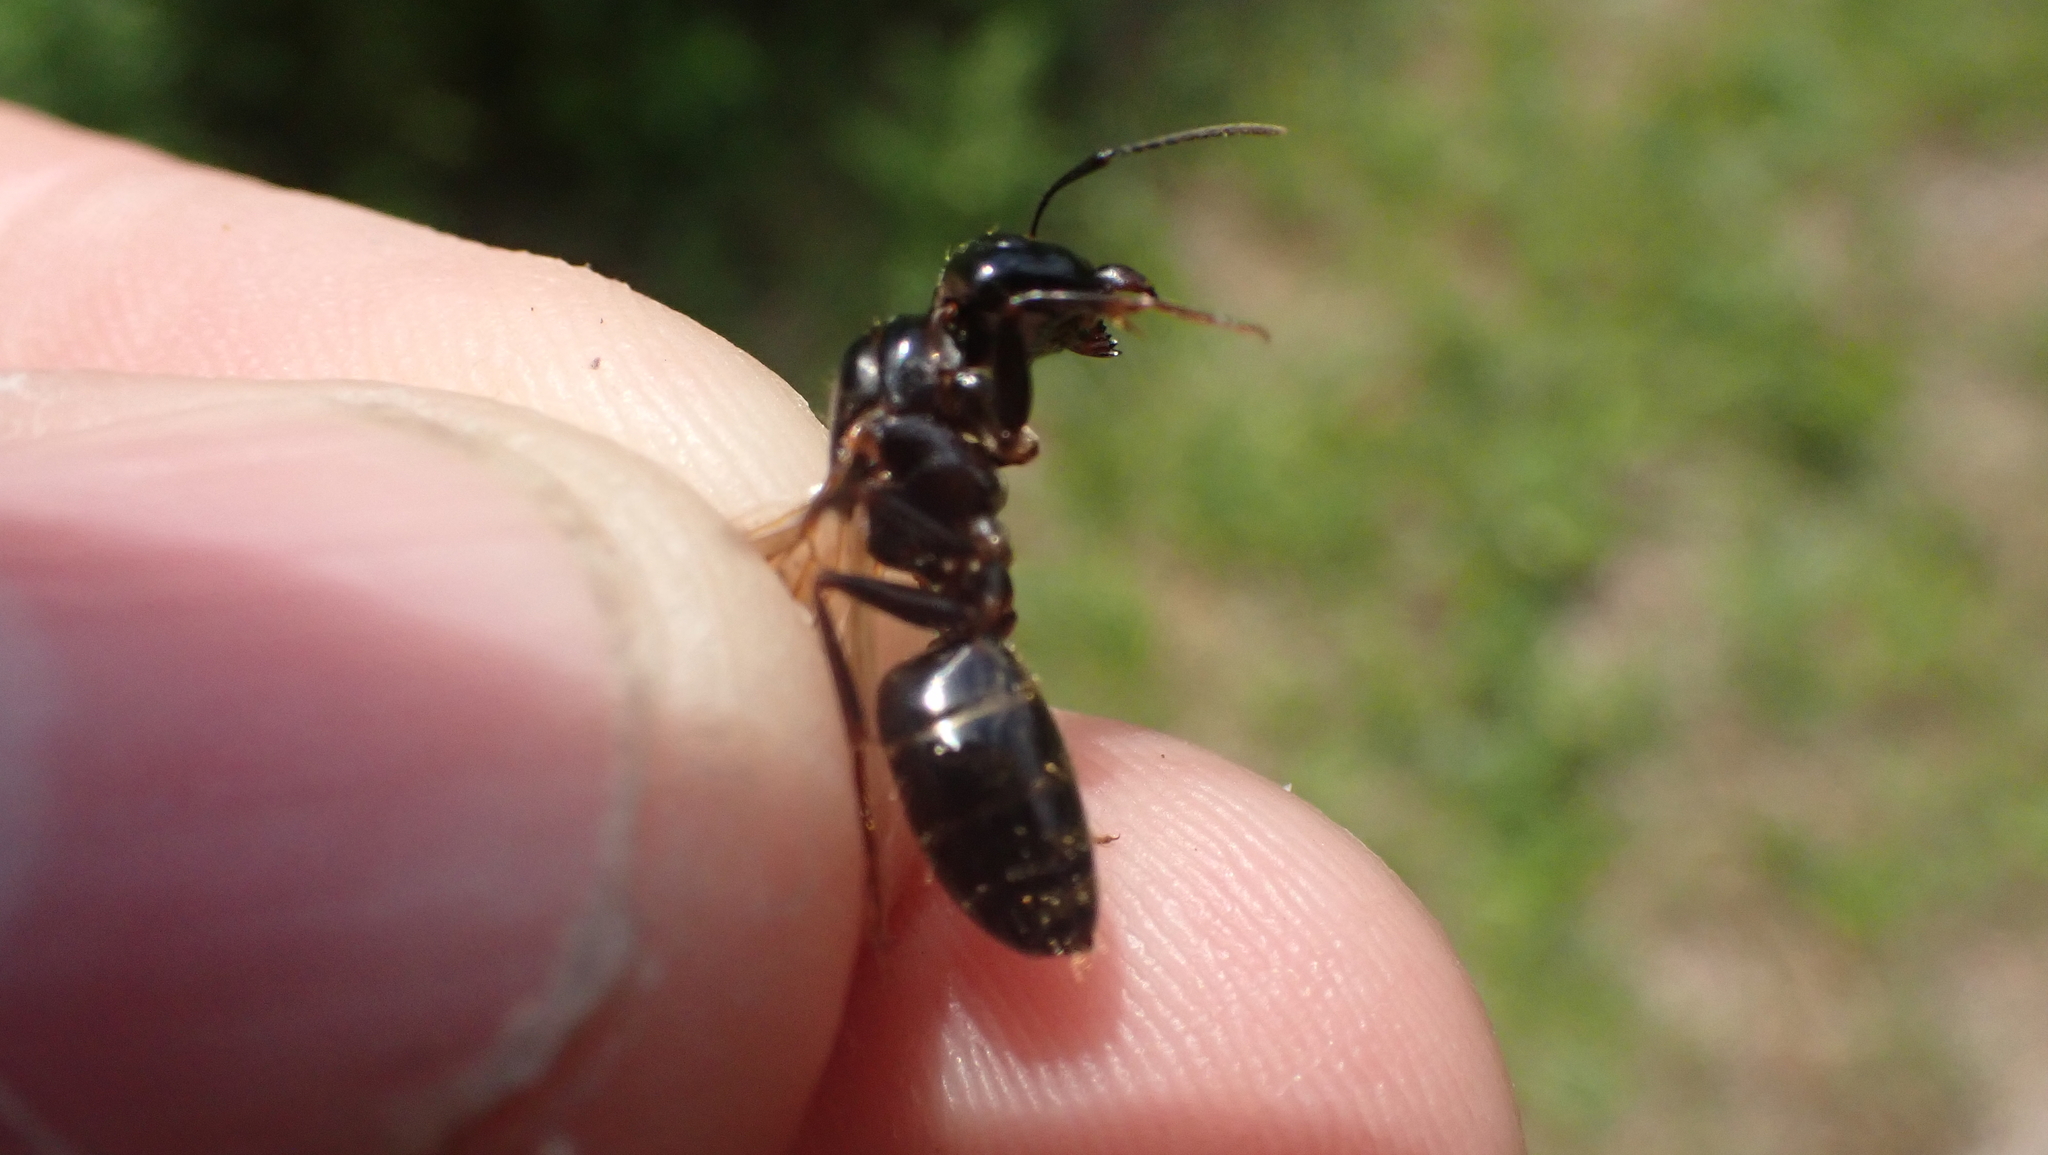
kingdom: Animalia
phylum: Arthropoda
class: Insecta
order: Hymenoptera
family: Formicidae
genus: Camponotus
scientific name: Camponotus pennsylvanicus
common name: Black carpenter ant
